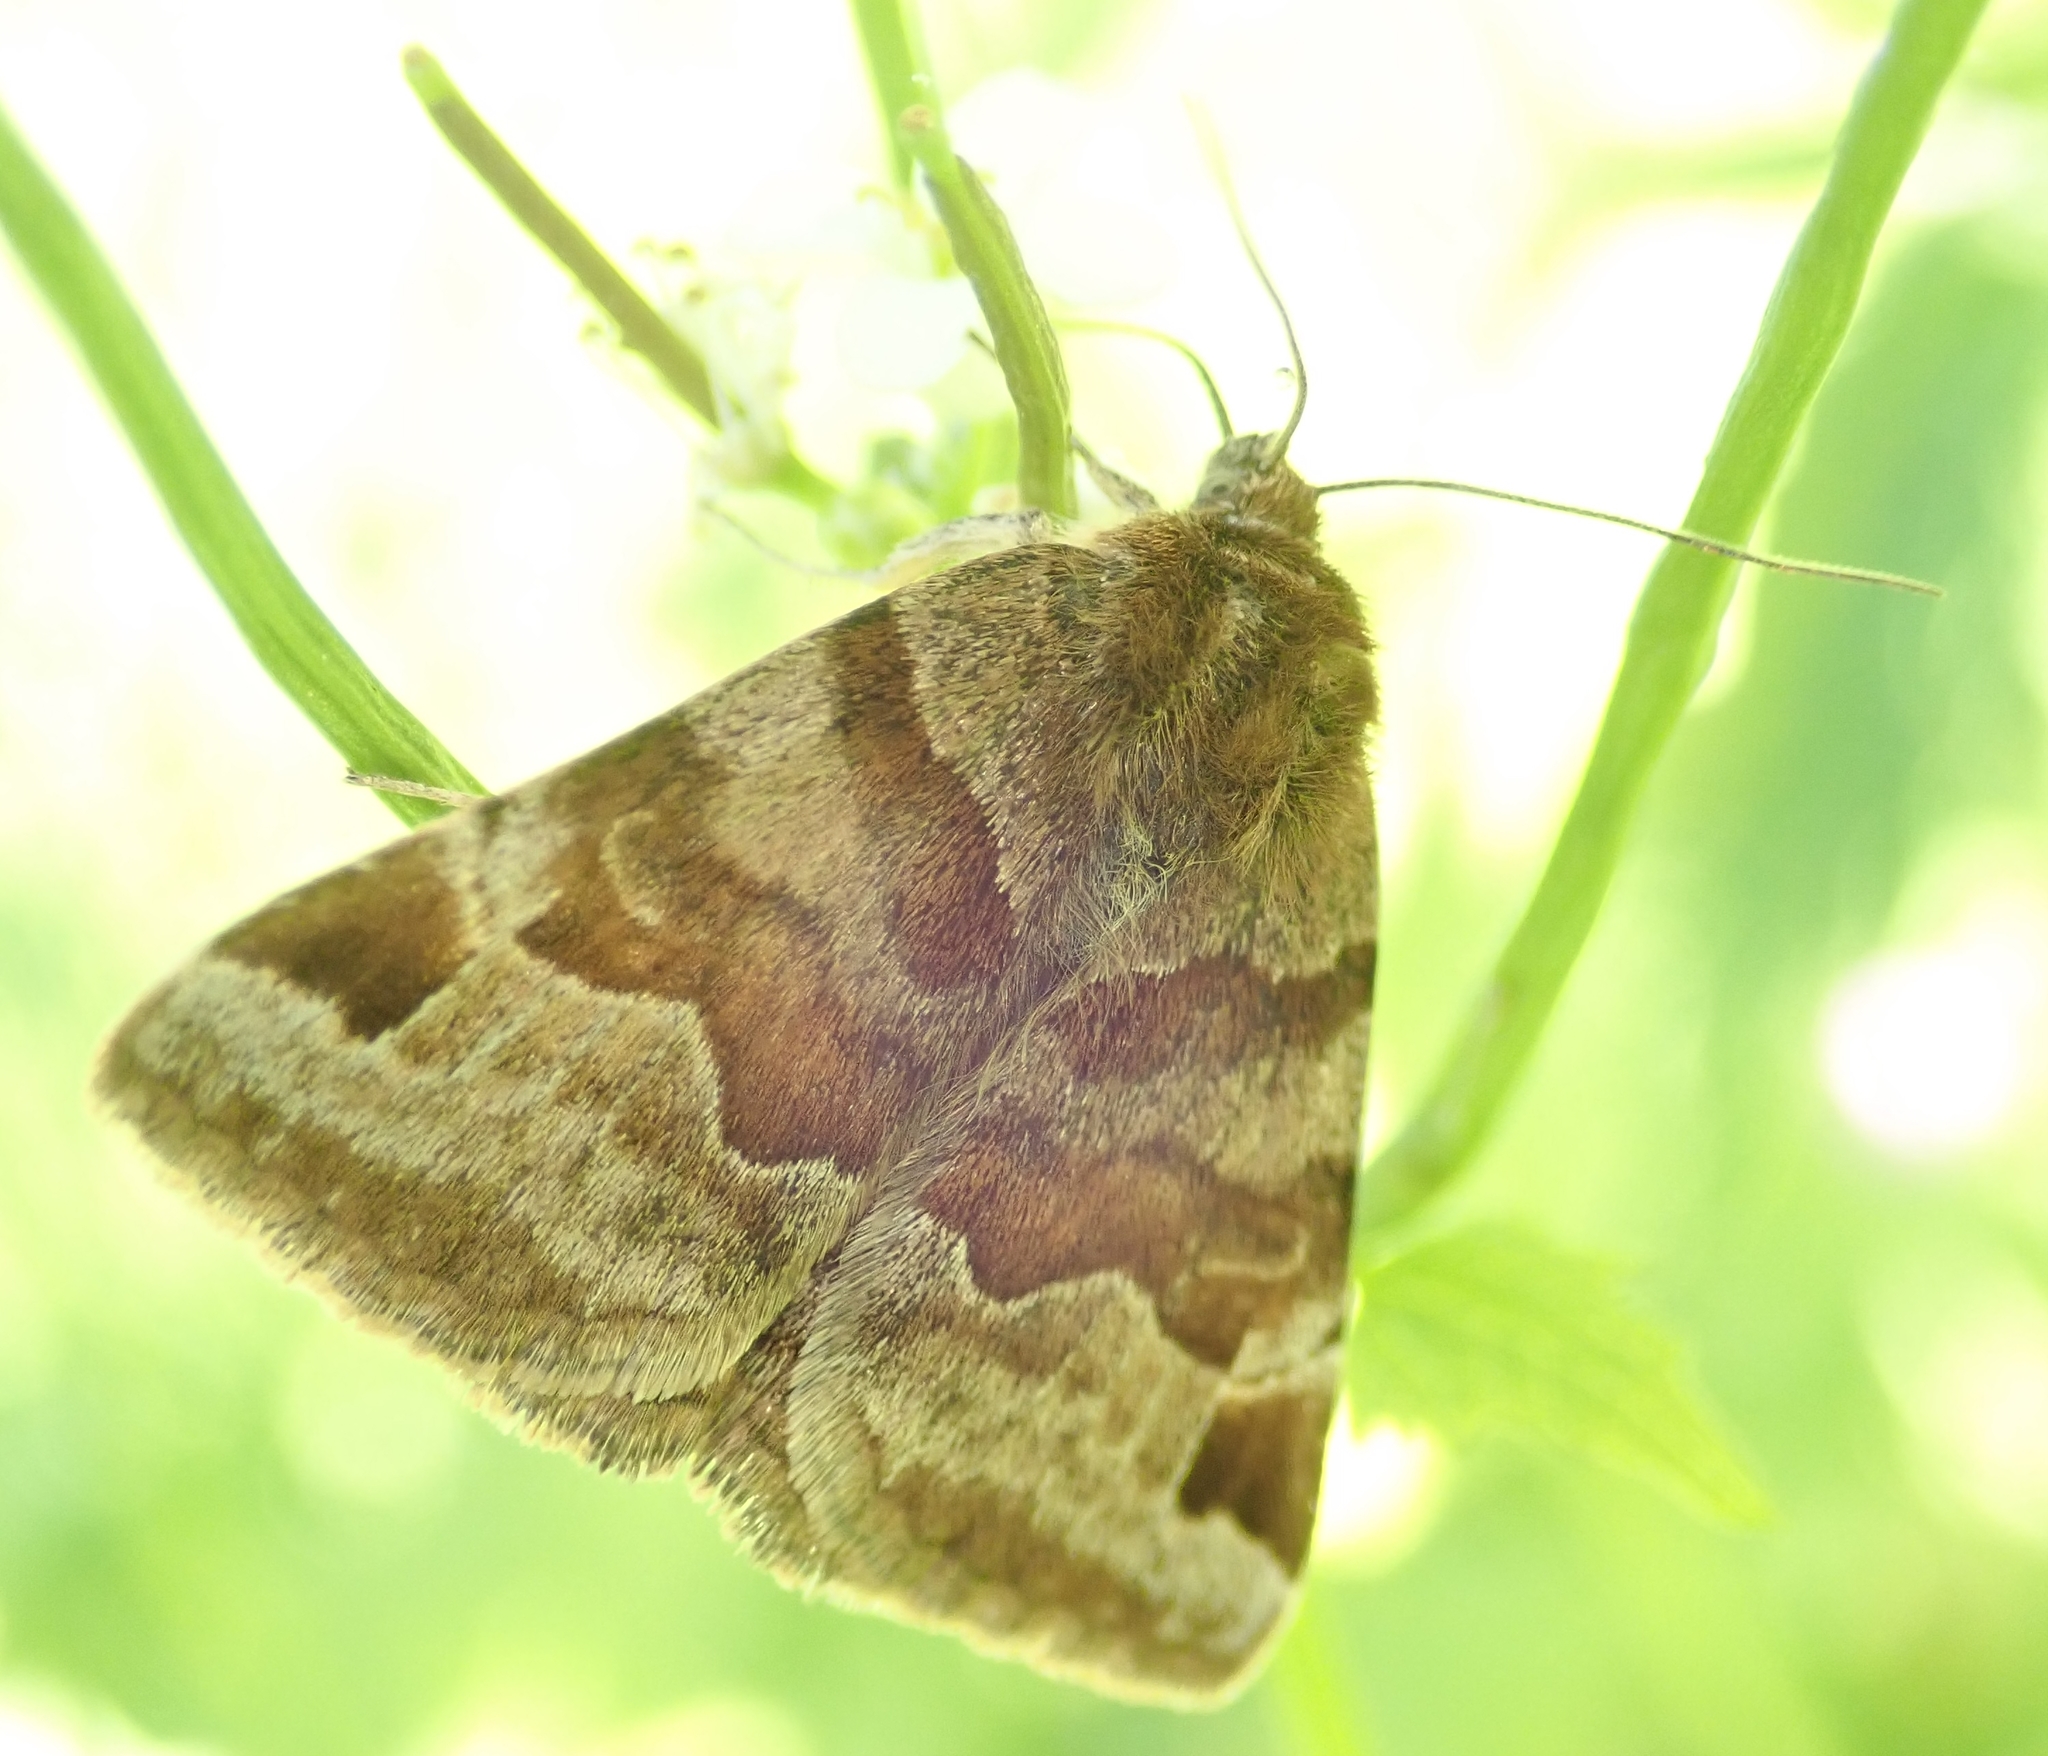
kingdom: Animalia
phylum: Arthropoda
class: Insecta
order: Lepidoptera
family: Erebidae
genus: Euclidia
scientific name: Euclidia glyphica
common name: Burnet companion
